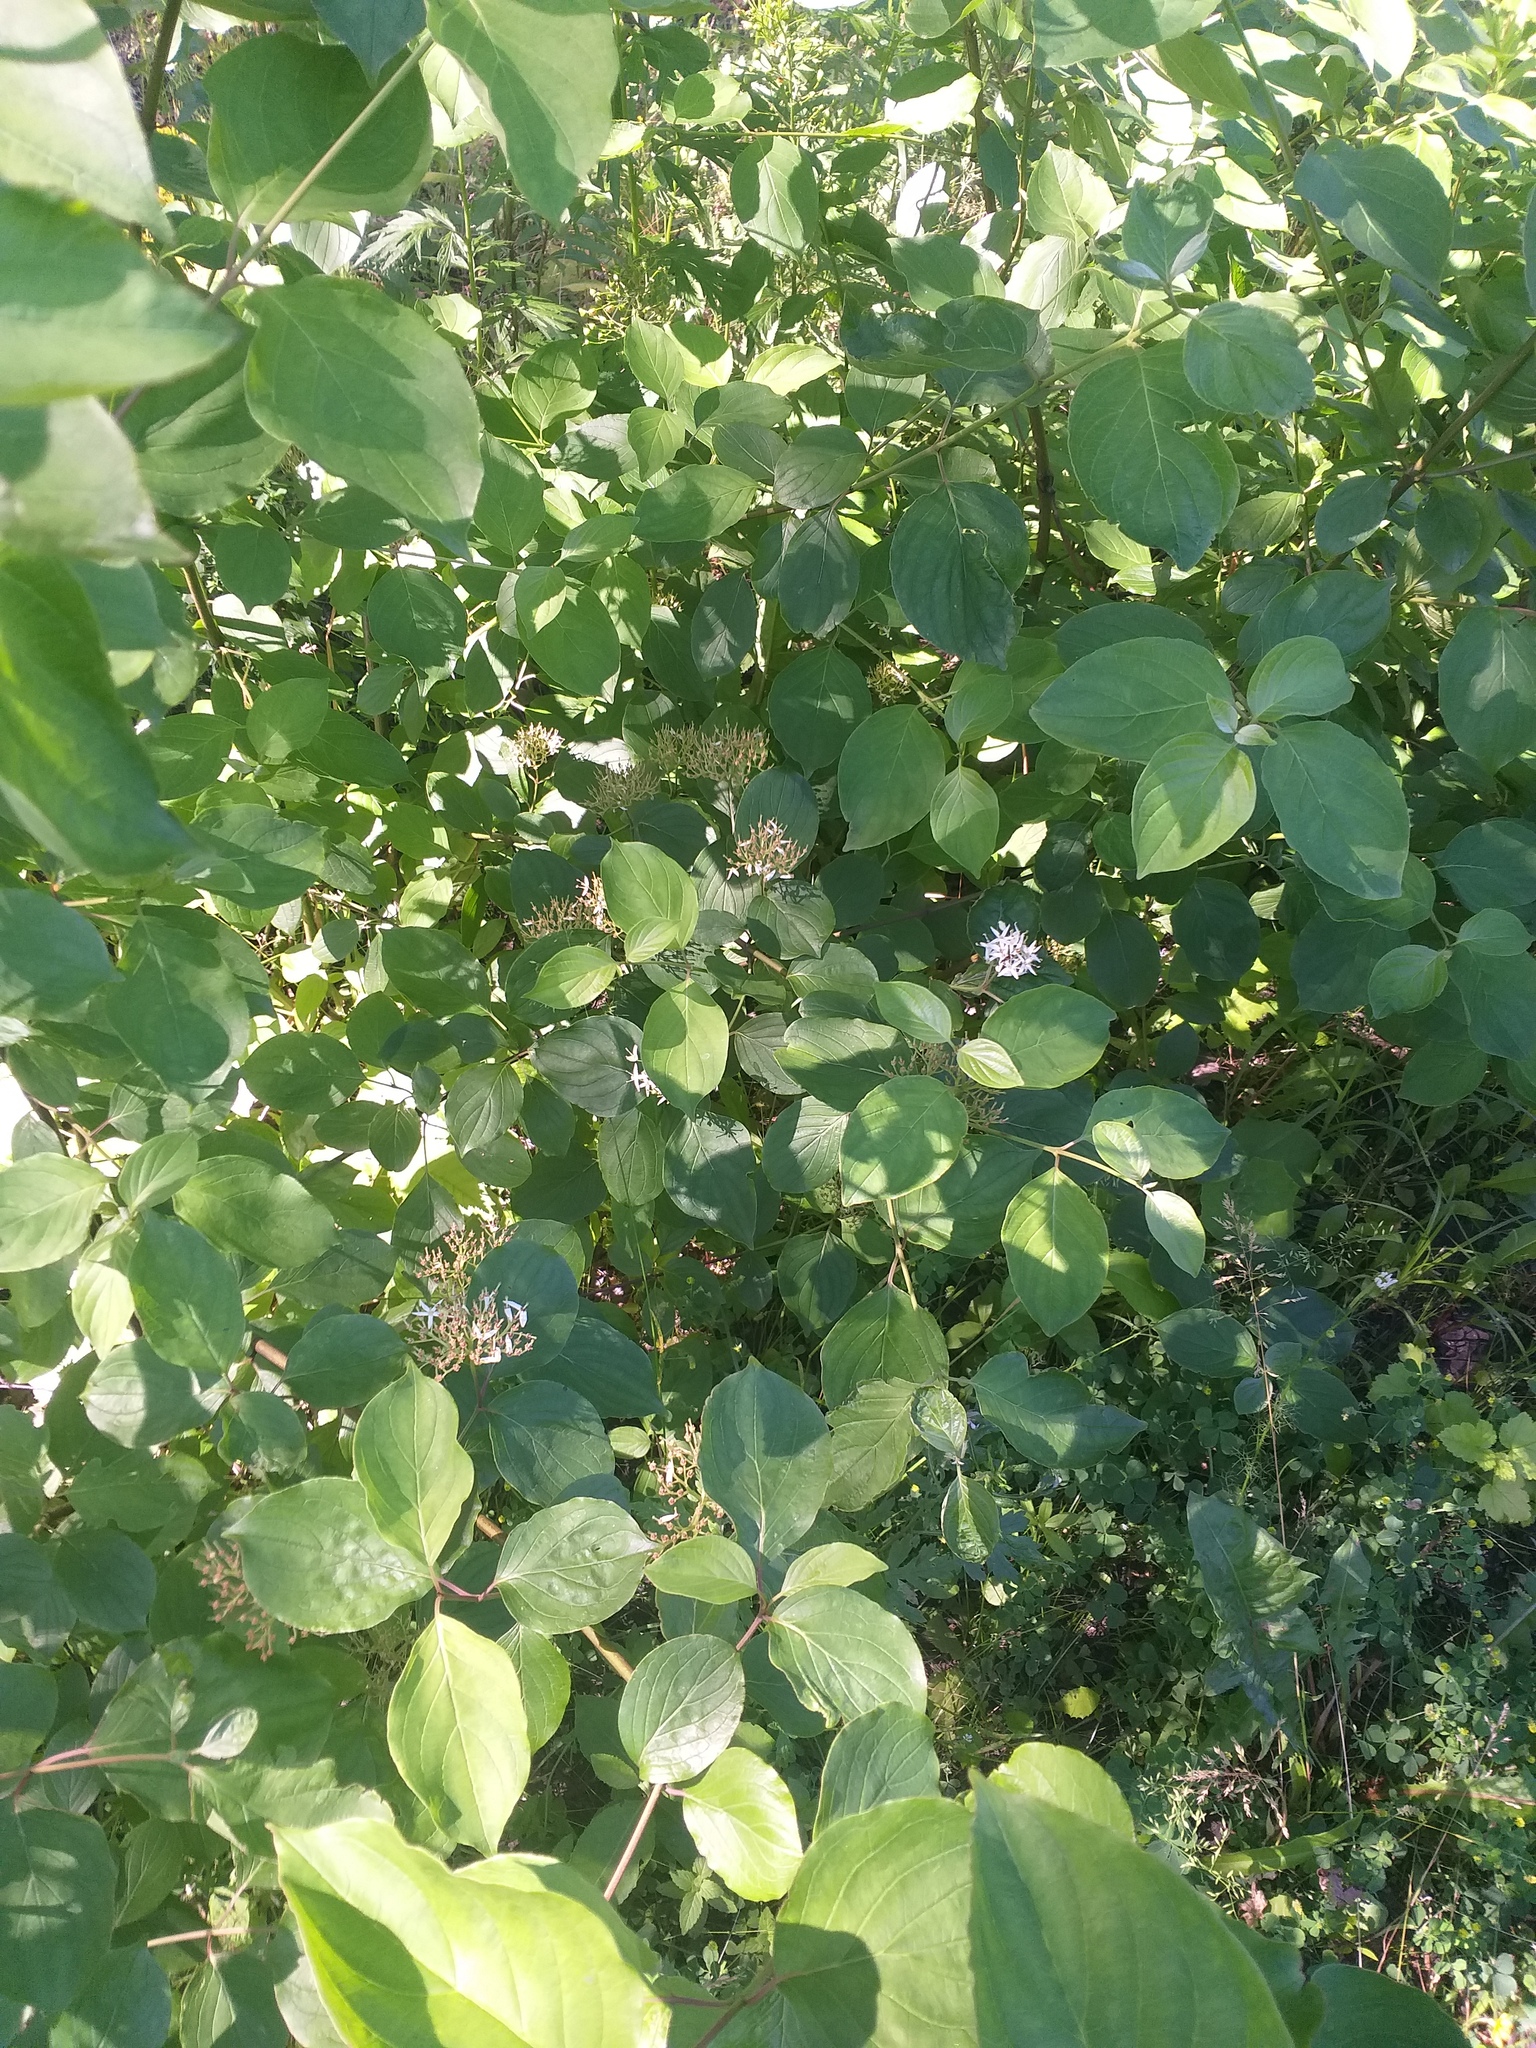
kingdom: Plantae
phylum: Tracheophyta
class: Magnoliopsida
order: Cornales
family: Cornaceae
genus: Cornus
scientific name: Cornus sanguinea
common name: Dogwood
